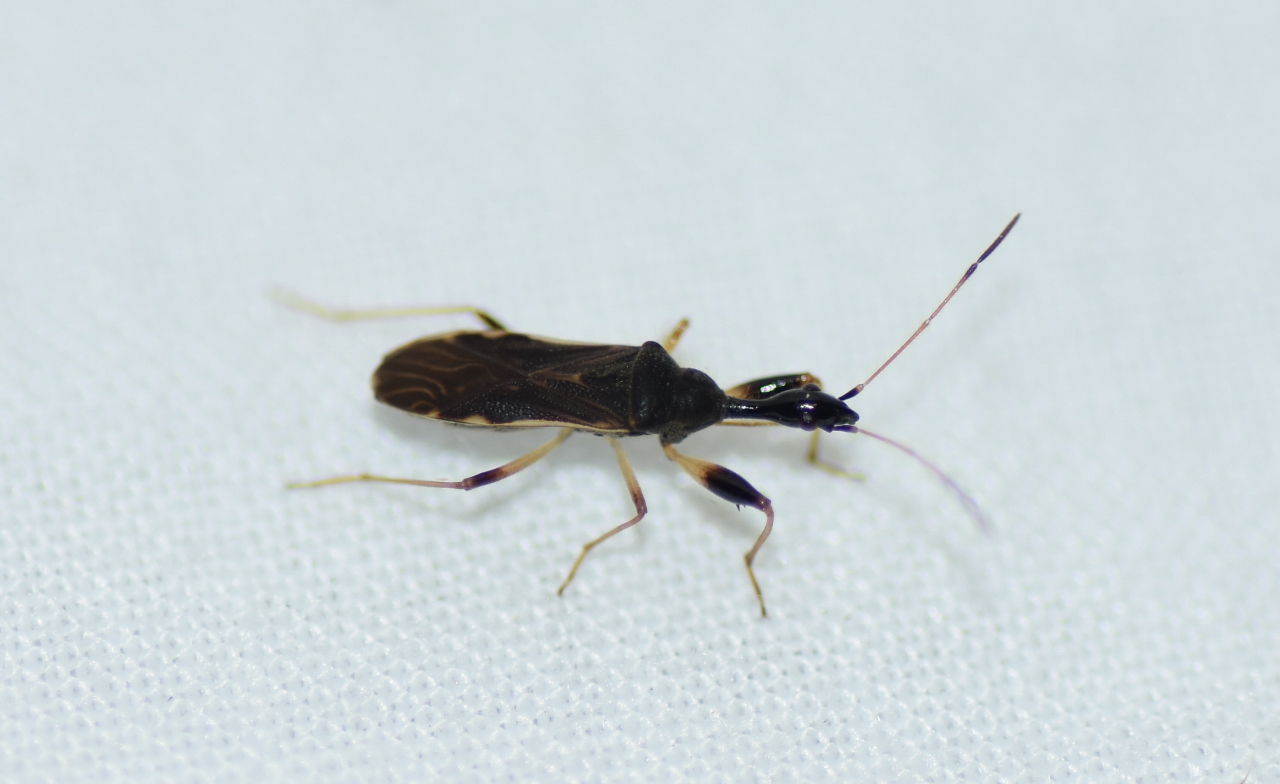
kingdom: Animalia
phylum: Arthropoda
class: Insecta
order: Hemiptera
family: Rhyparochromidae
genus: Myodocha
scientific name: Myodocha serripes
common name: Long-necked seed bug
